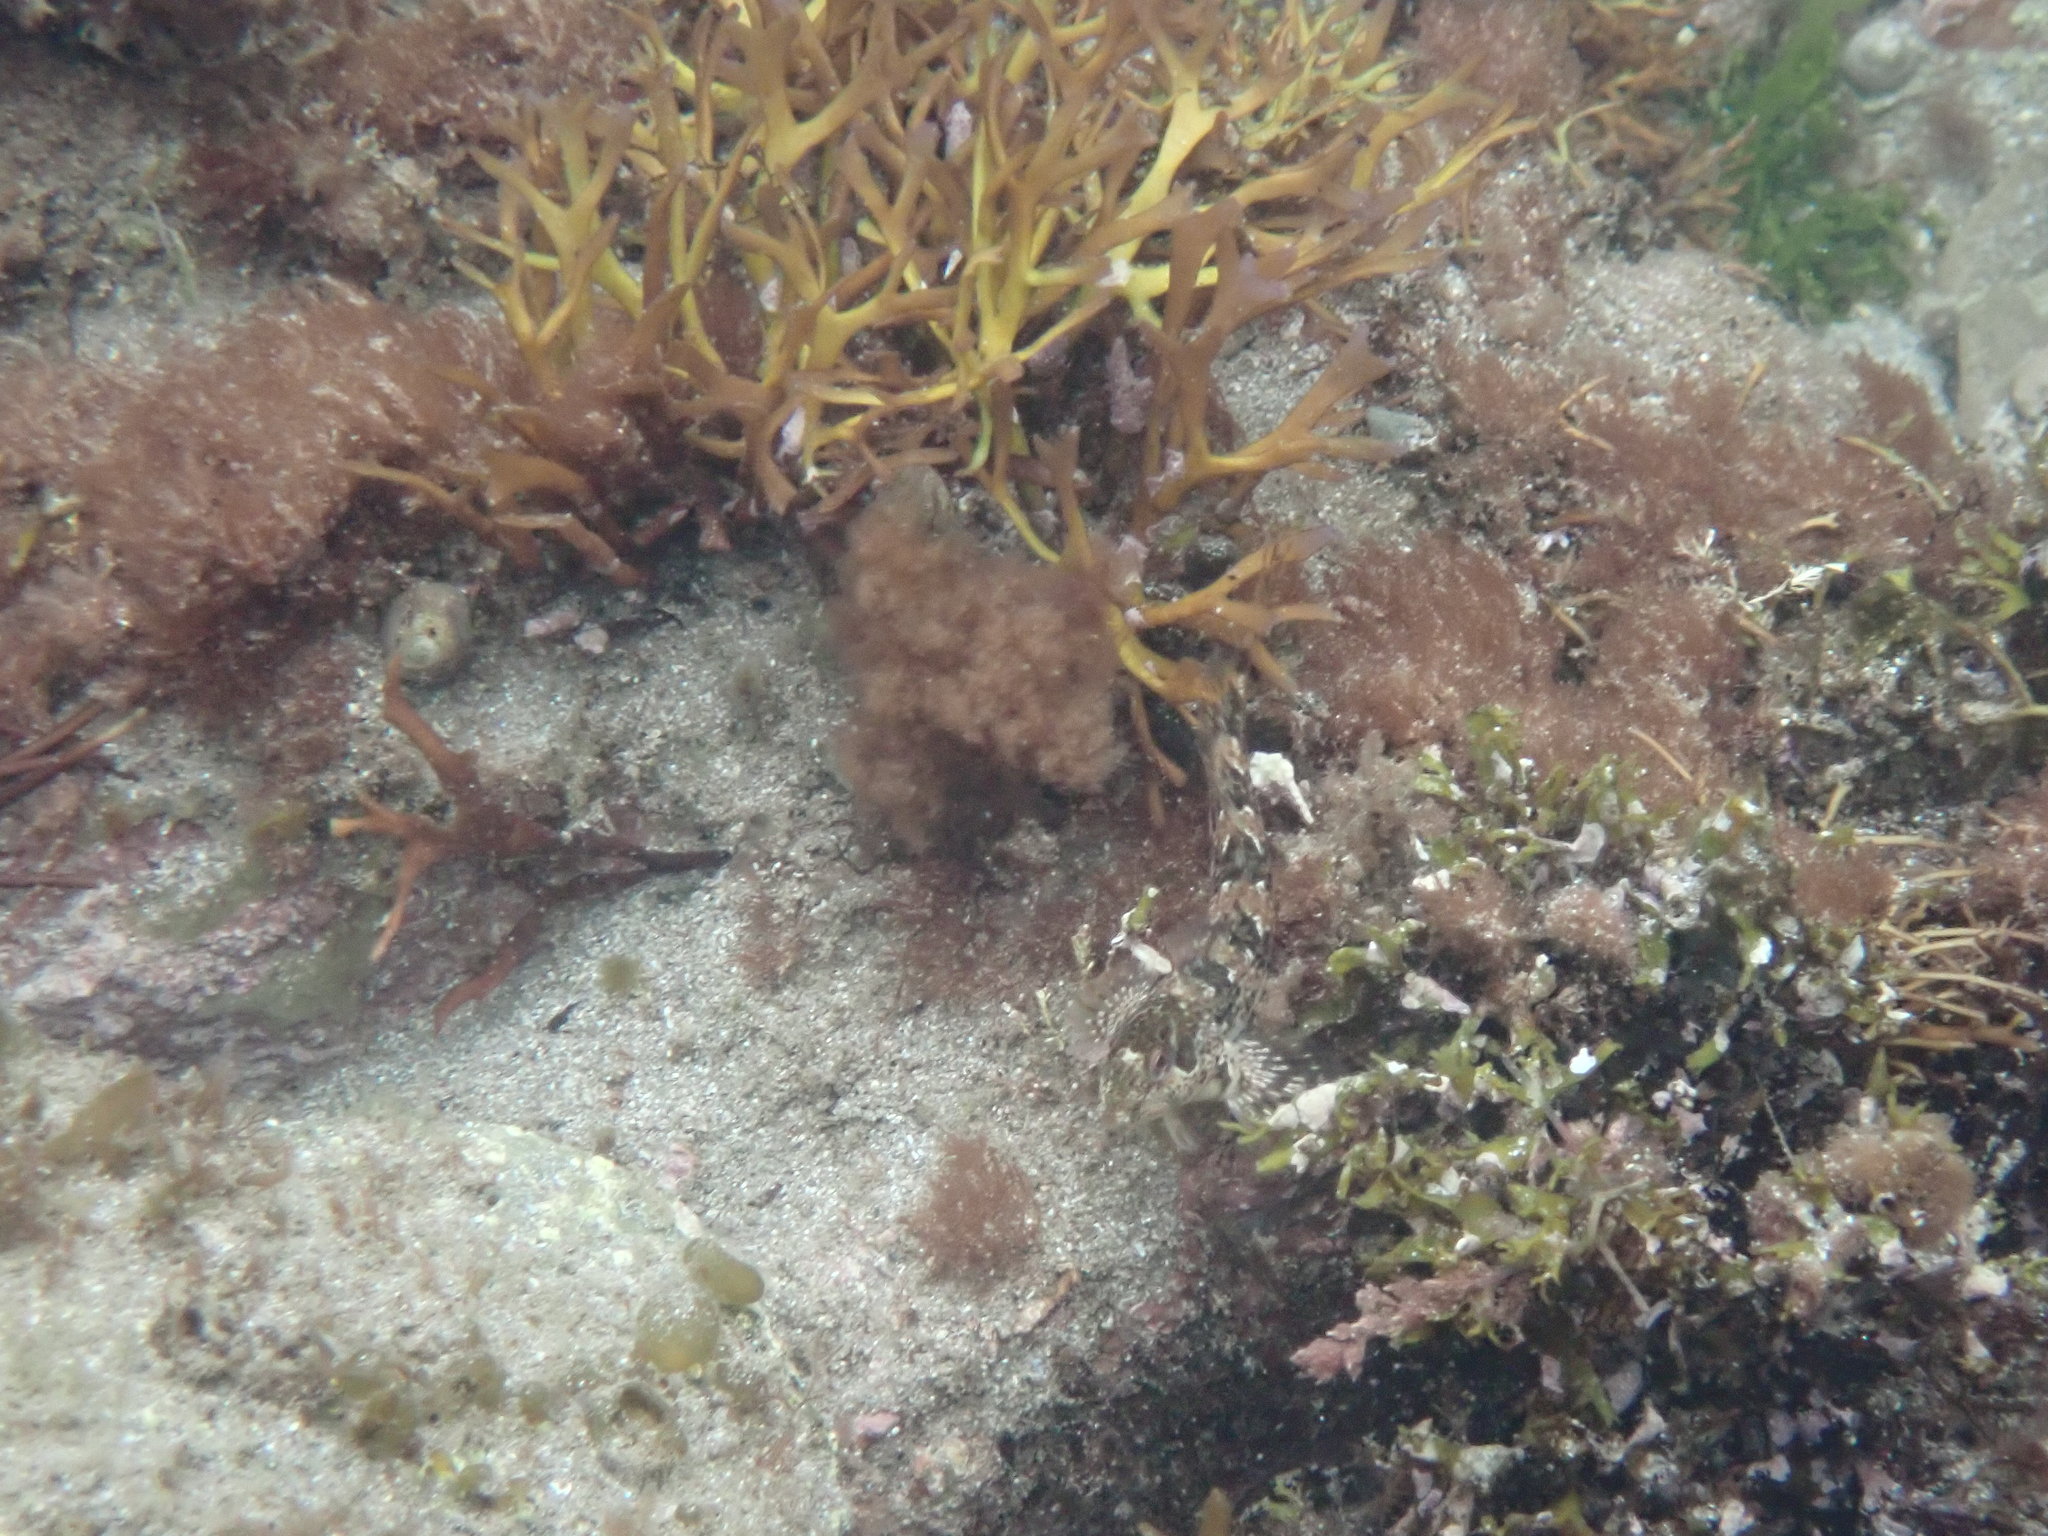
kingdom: Animalia
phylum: Chordata
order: Perciformes
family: Blenniidae
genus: Lipophrys
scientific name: Lipophrys pholis
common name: Shanny
